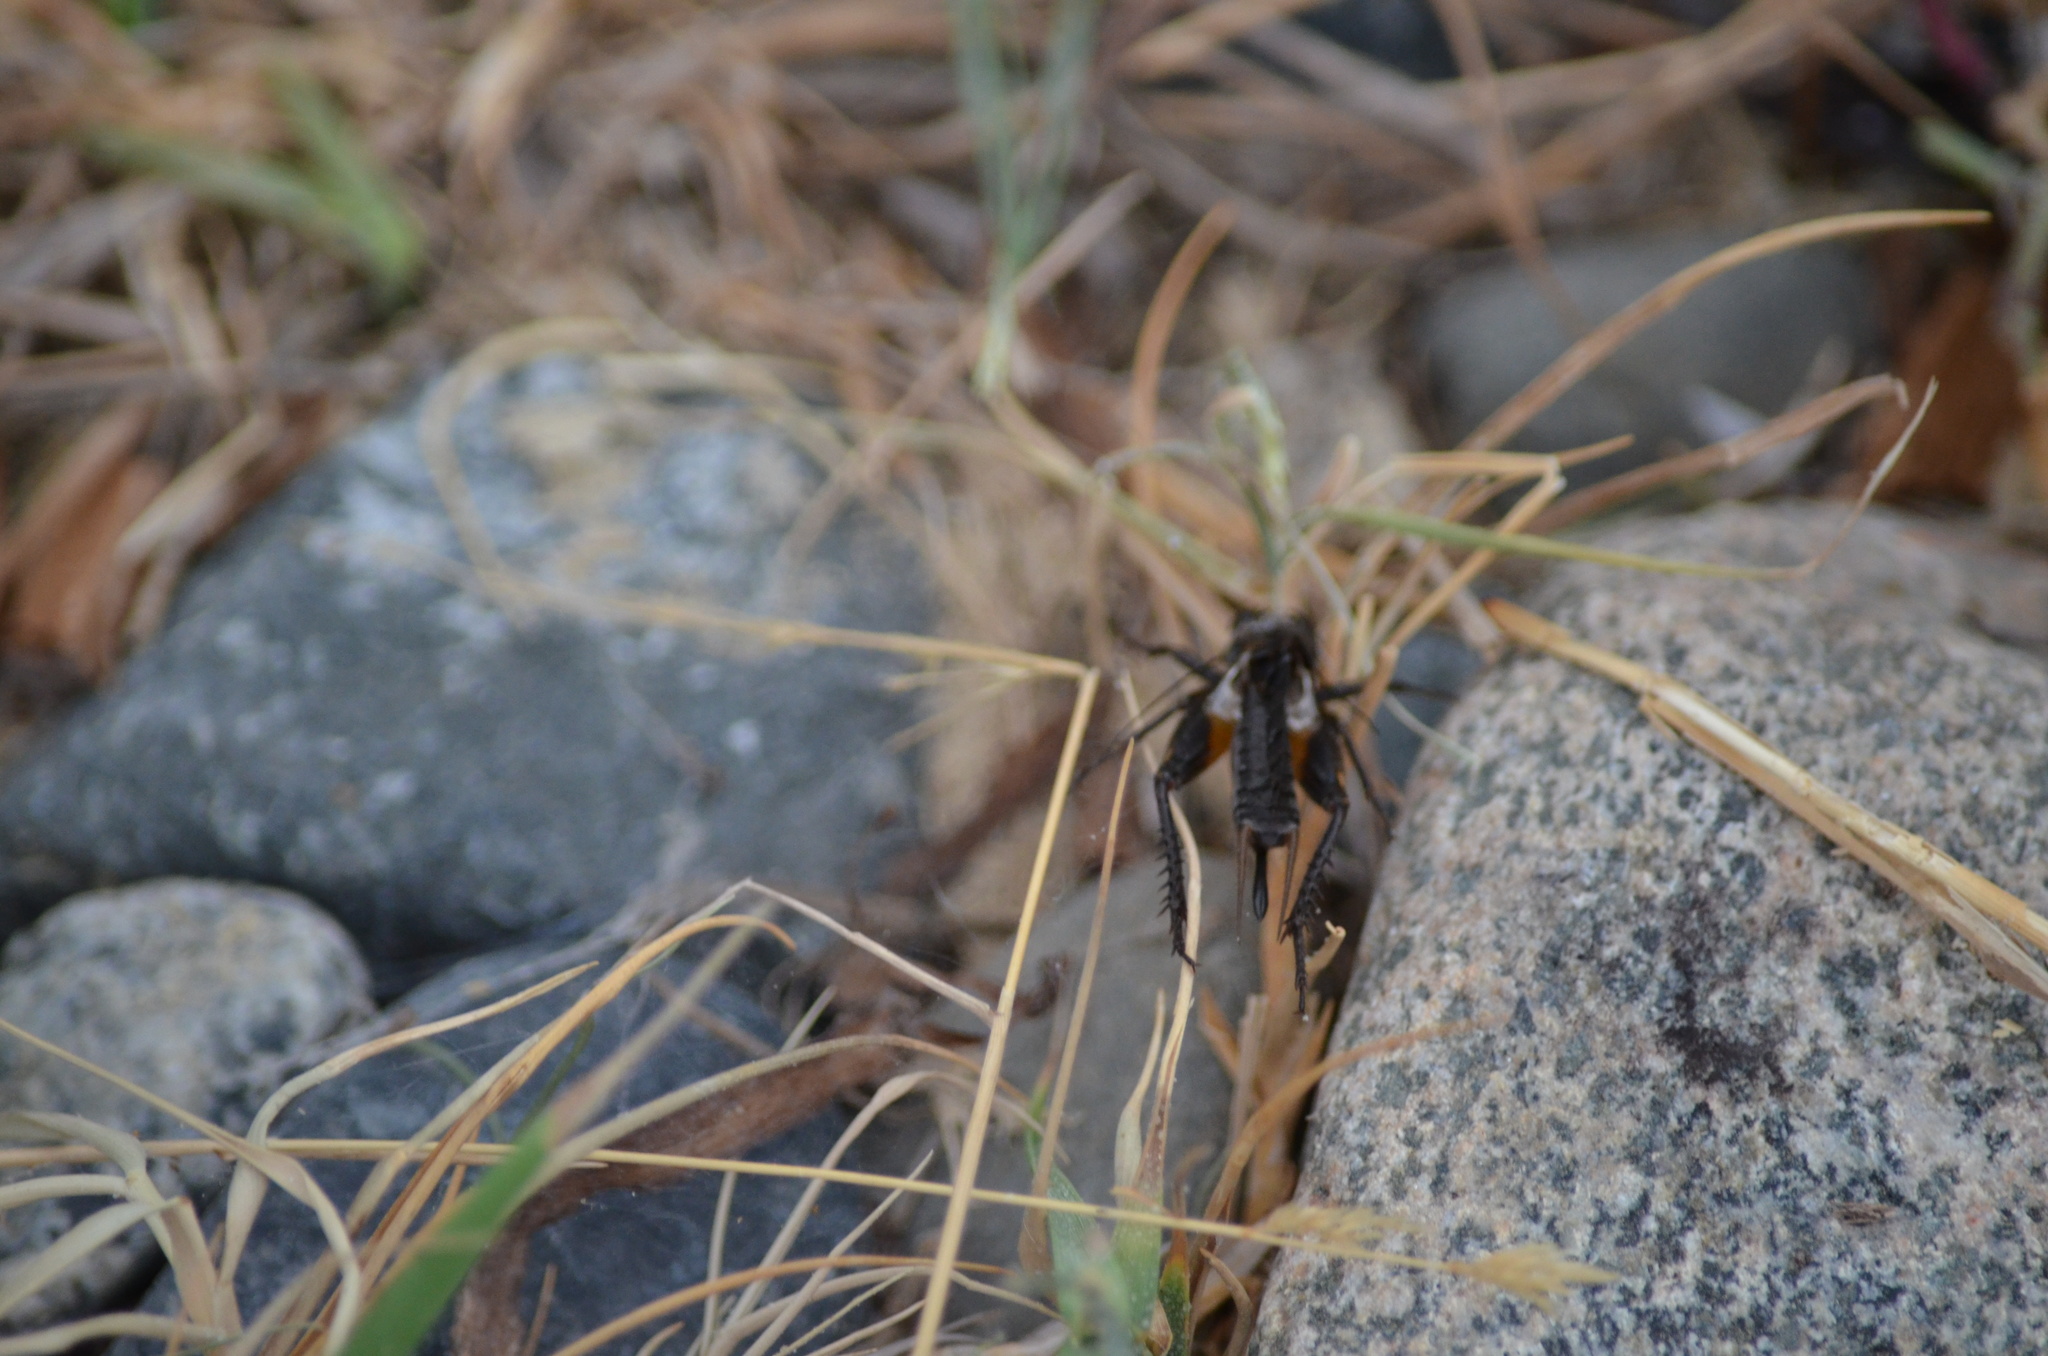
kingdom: Animalia
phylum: Arthropoda
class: Insecta
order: Orthoptera
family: Gryllidae
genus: Gryllus
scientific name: Gryllus pennsylvanicus
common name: Fall field cricket
